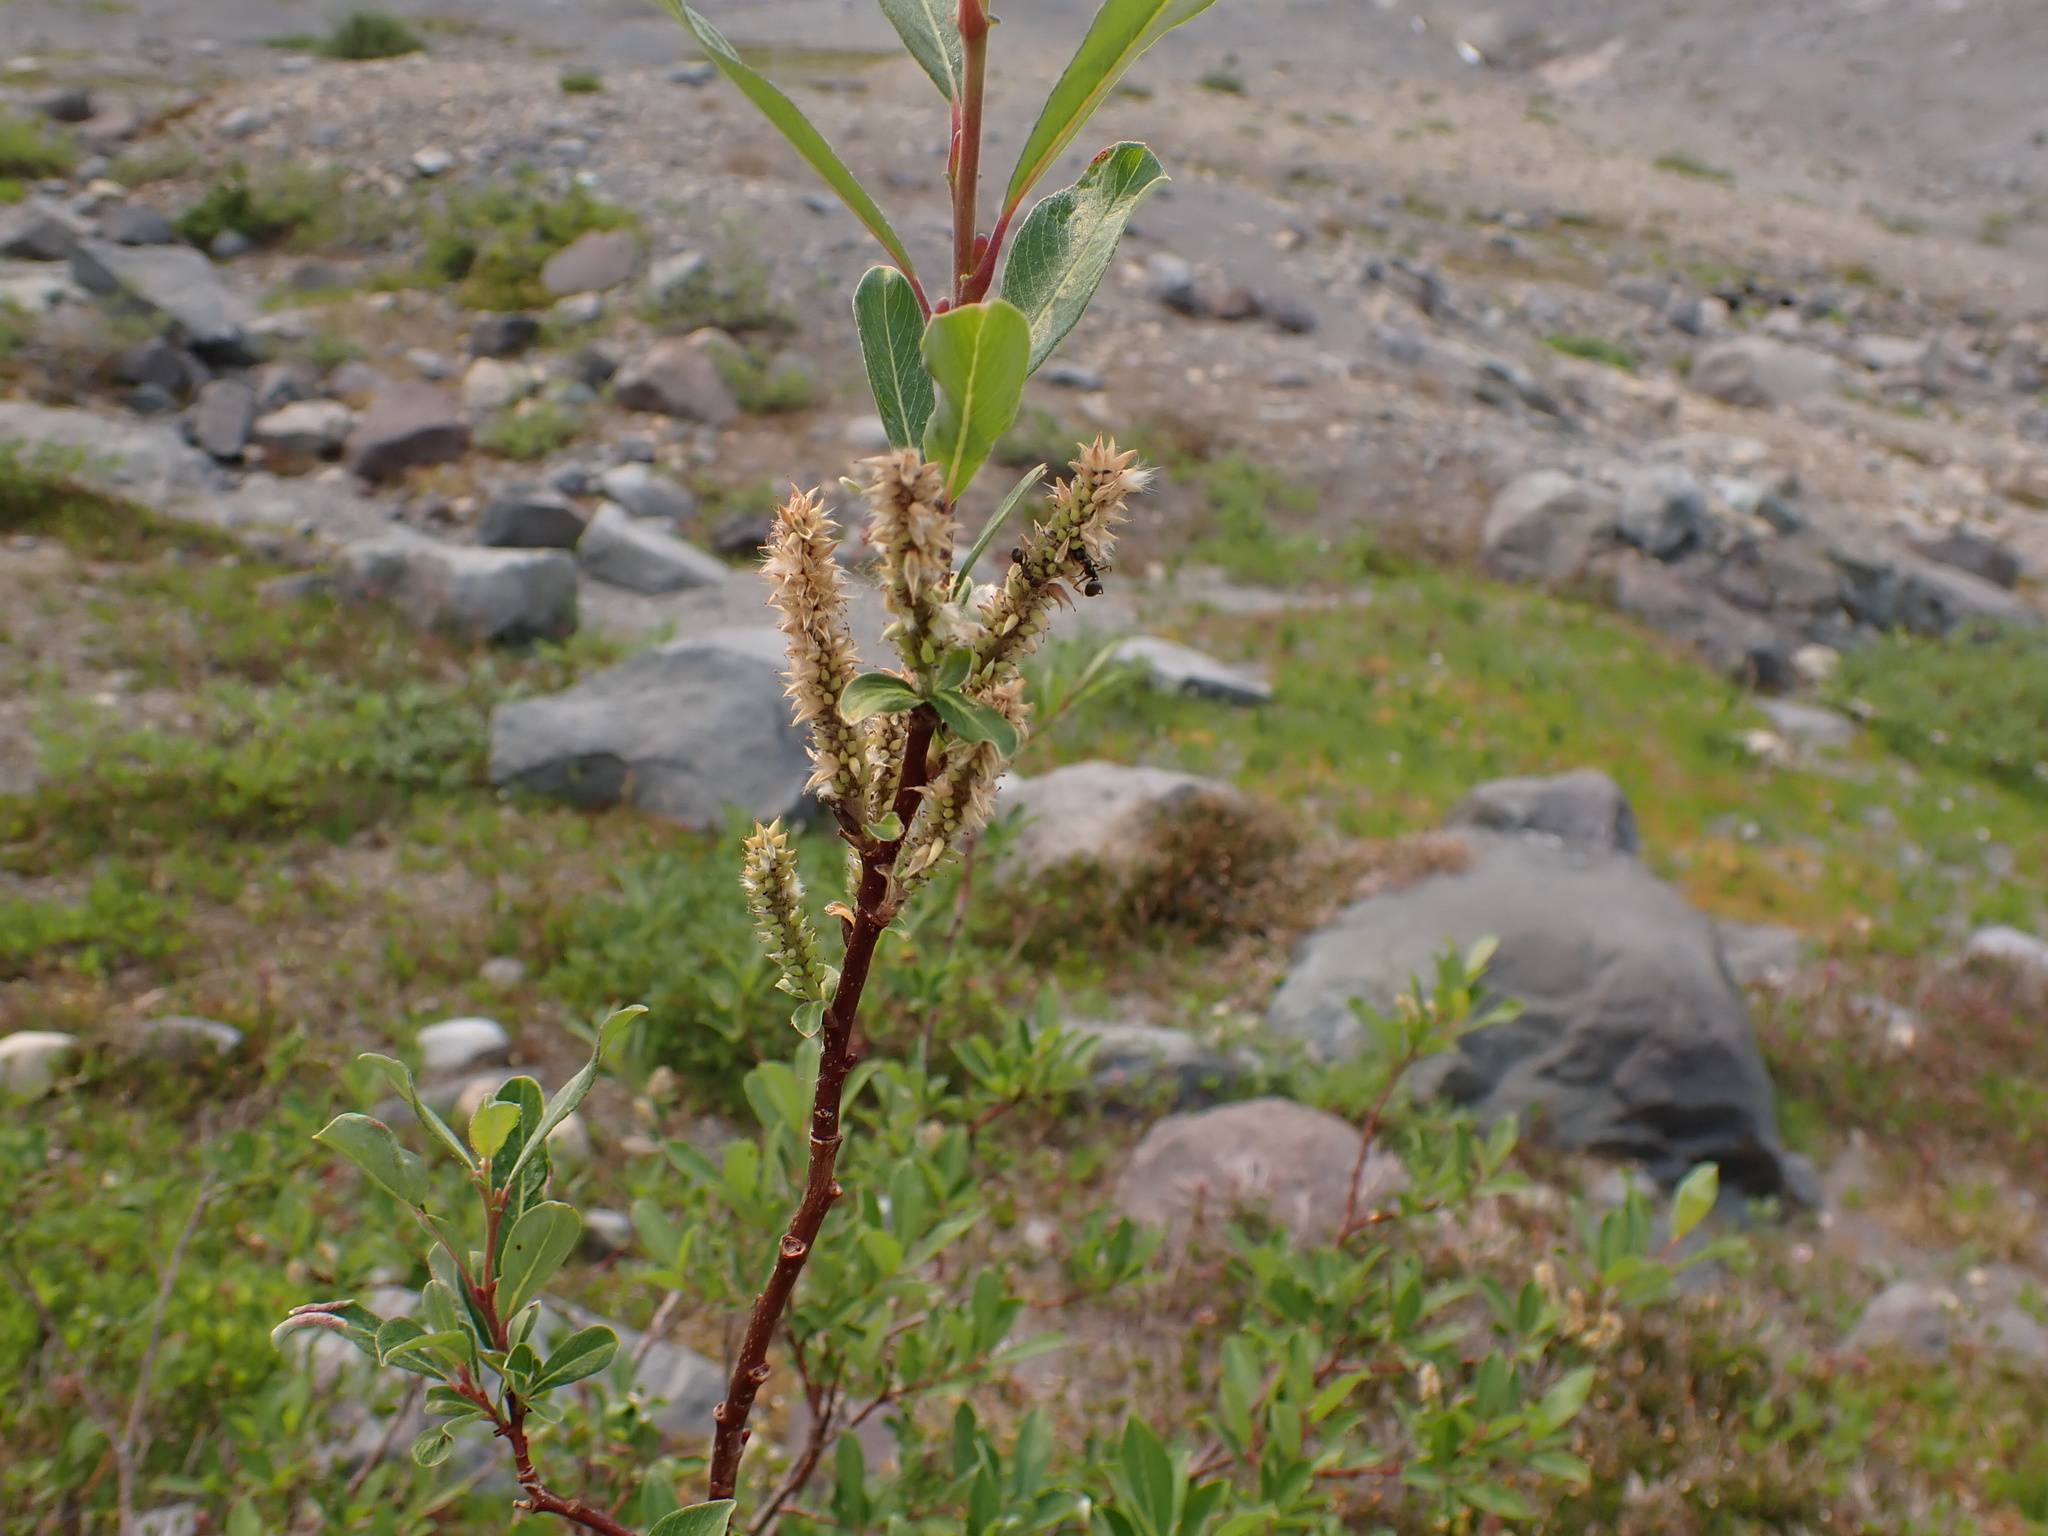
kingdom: Plantae
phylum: Tracheophyta
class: Magnoliopsida
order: Malpighiales
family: Salicaceae
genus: Salix
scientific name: Salix sitchensis
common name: Sitka willow
